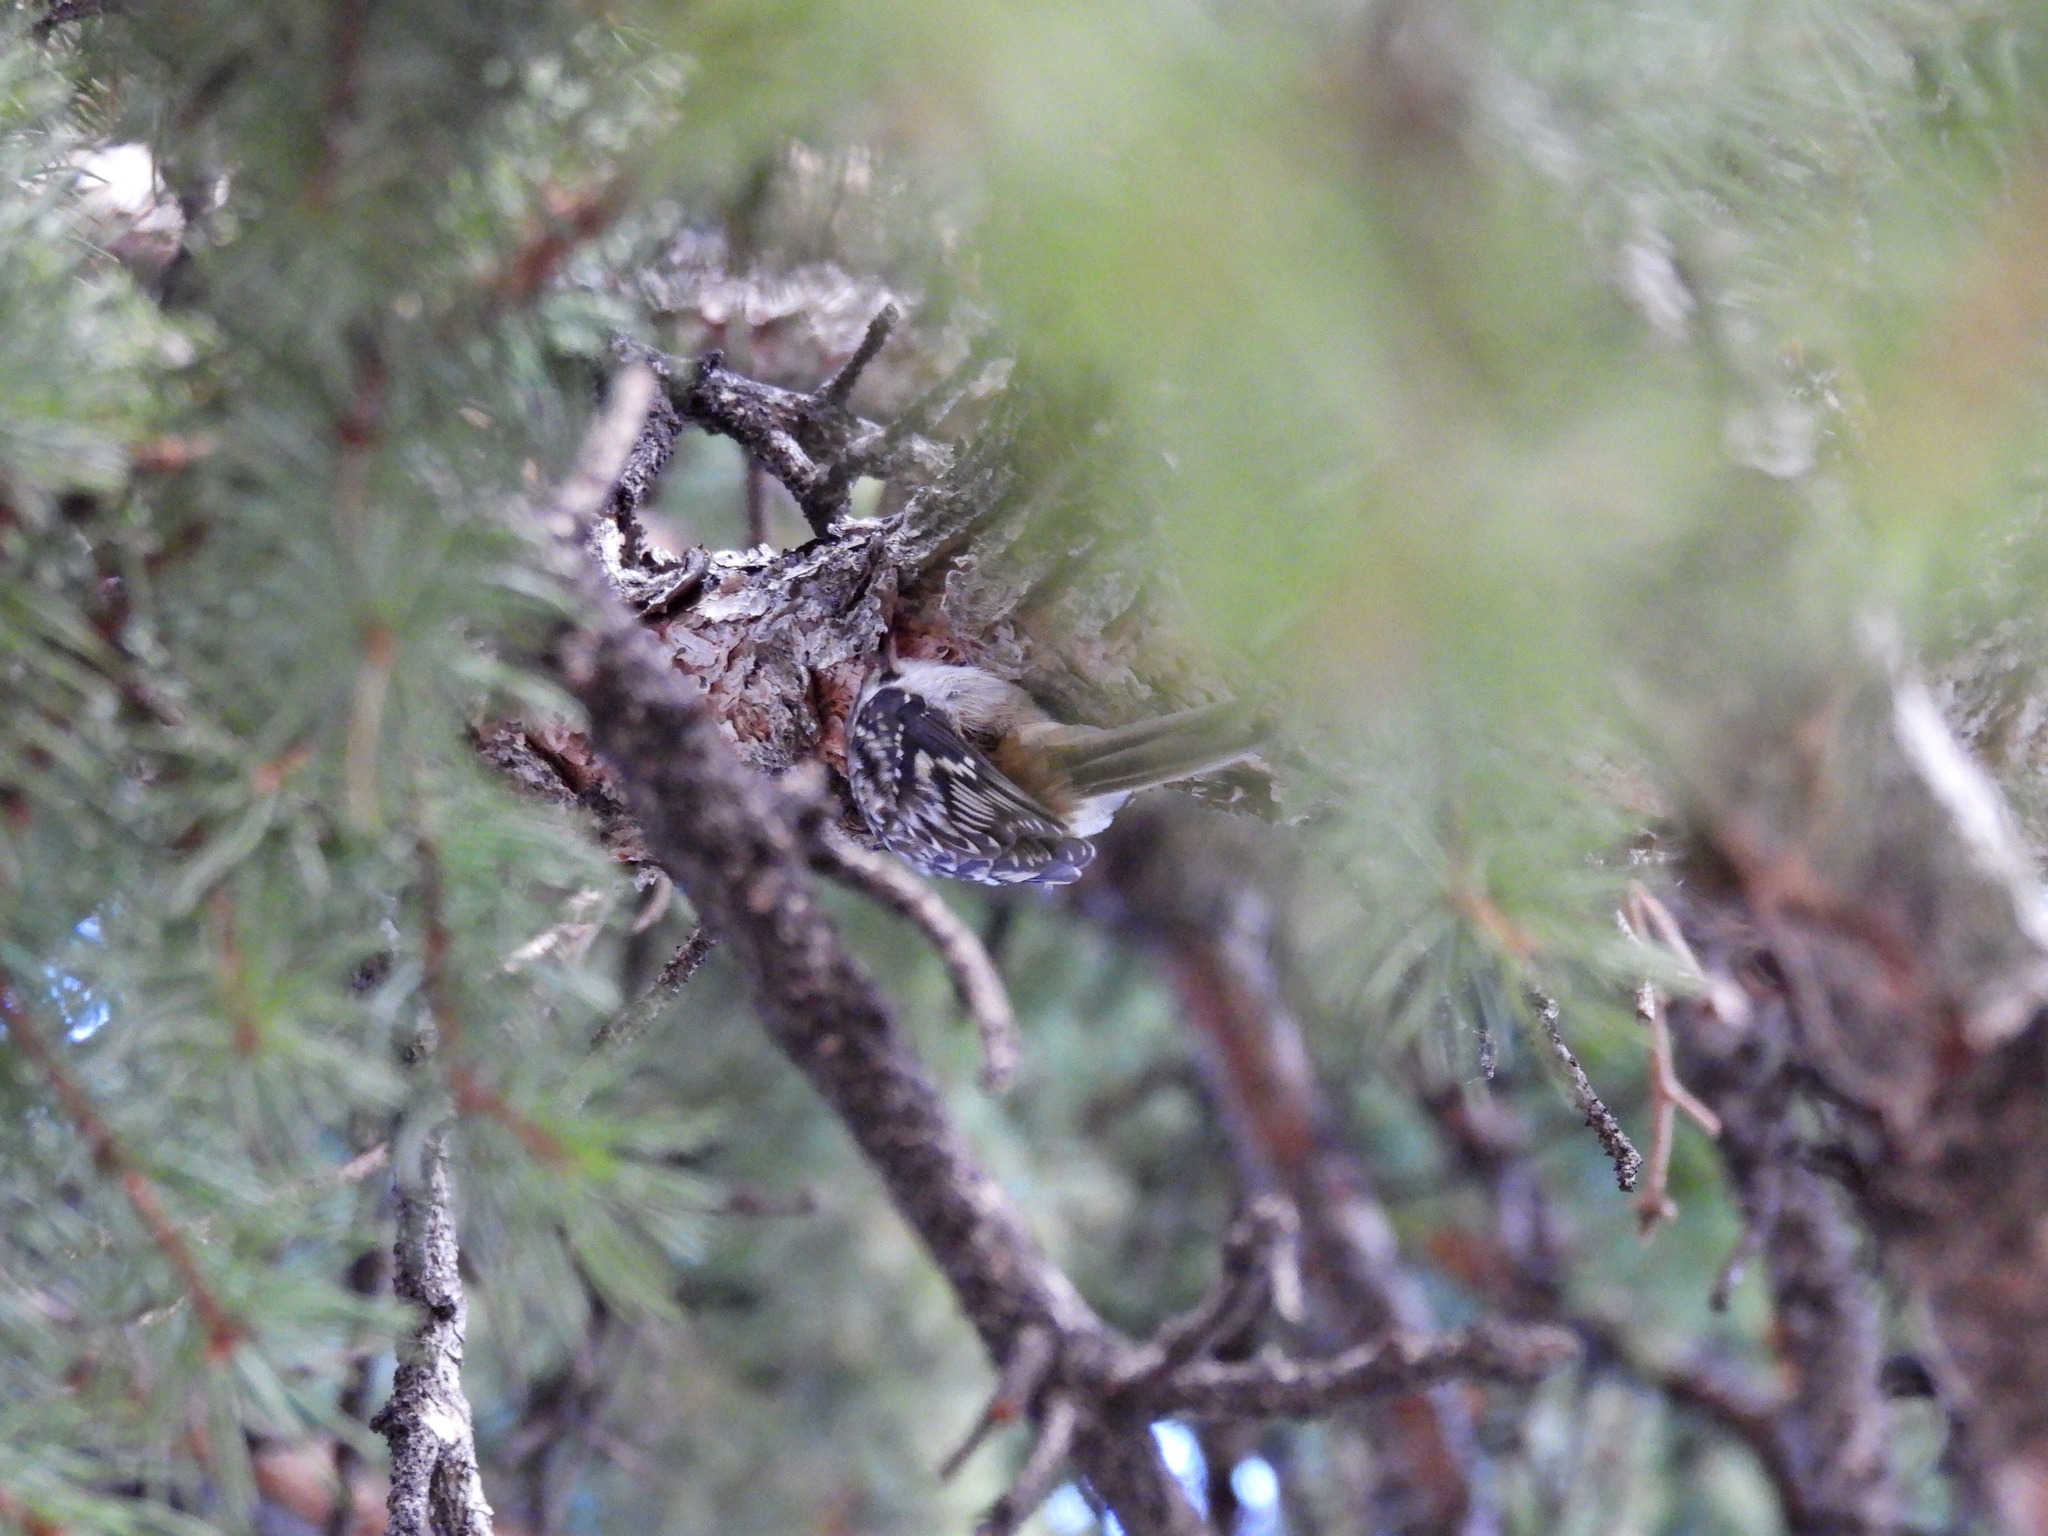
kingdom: Animalia
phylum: Chordata
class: Aves
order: Passeriformes
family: Certhiidae
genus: Certhia
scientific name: Certhia americana
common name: Brown creeper
